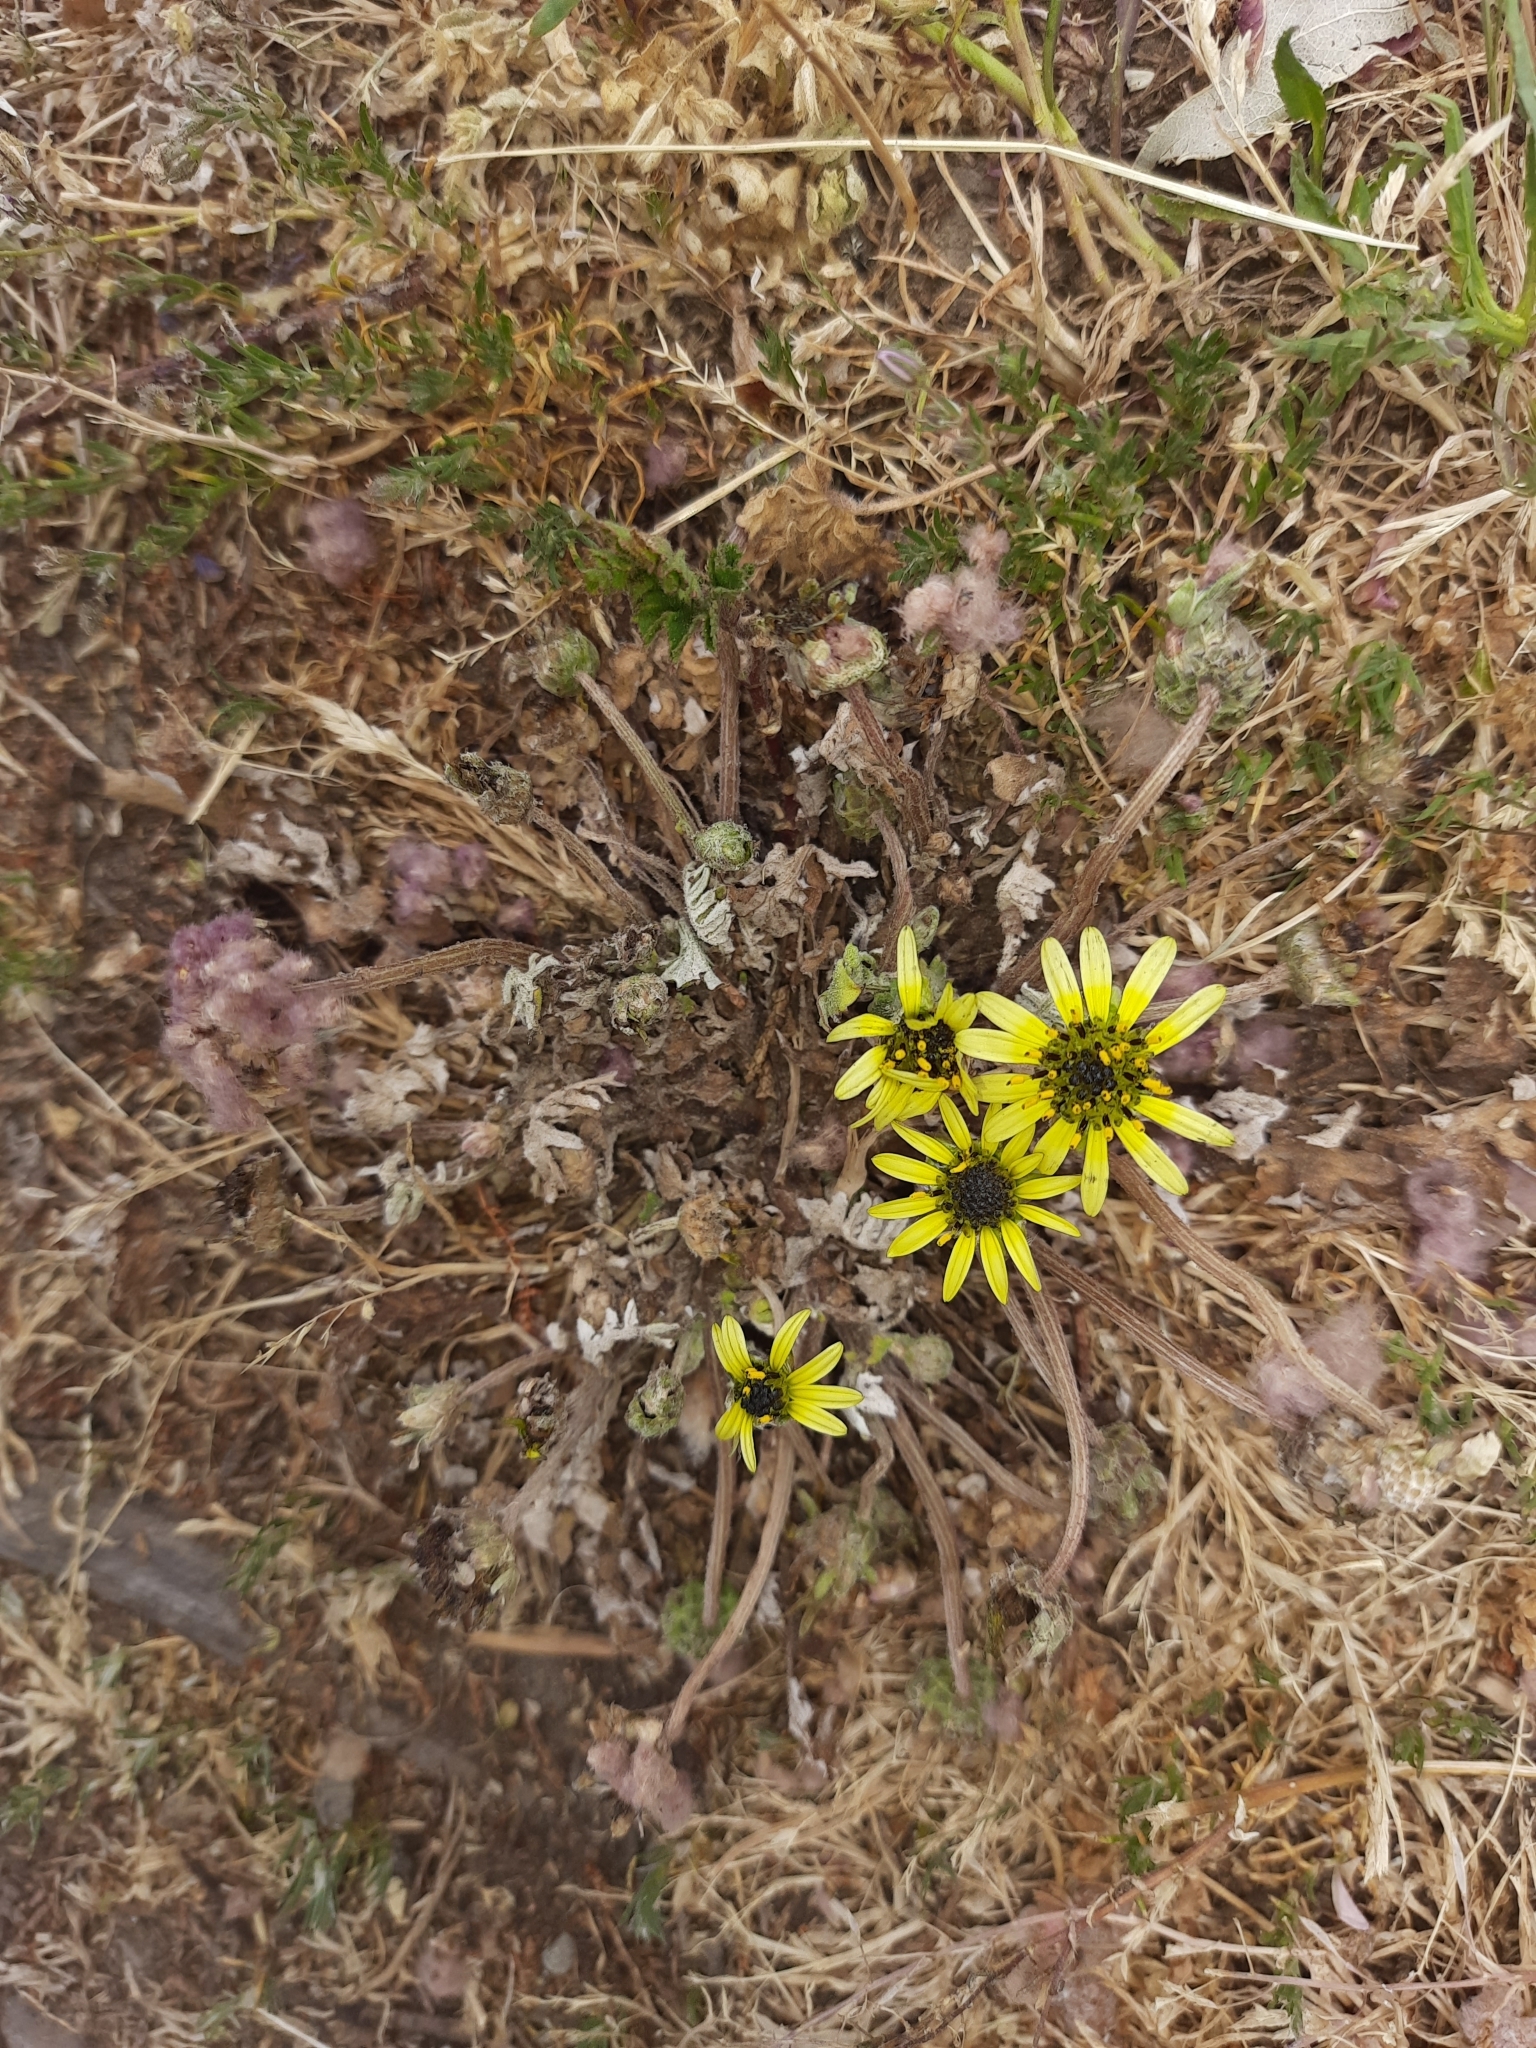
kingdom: Plantae
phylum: Tracheophyta
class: Magnoliopsida
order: Asterales
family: Asteraceae
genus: Arctotheca
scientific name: Arctotheca calendula
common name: Capeweed
